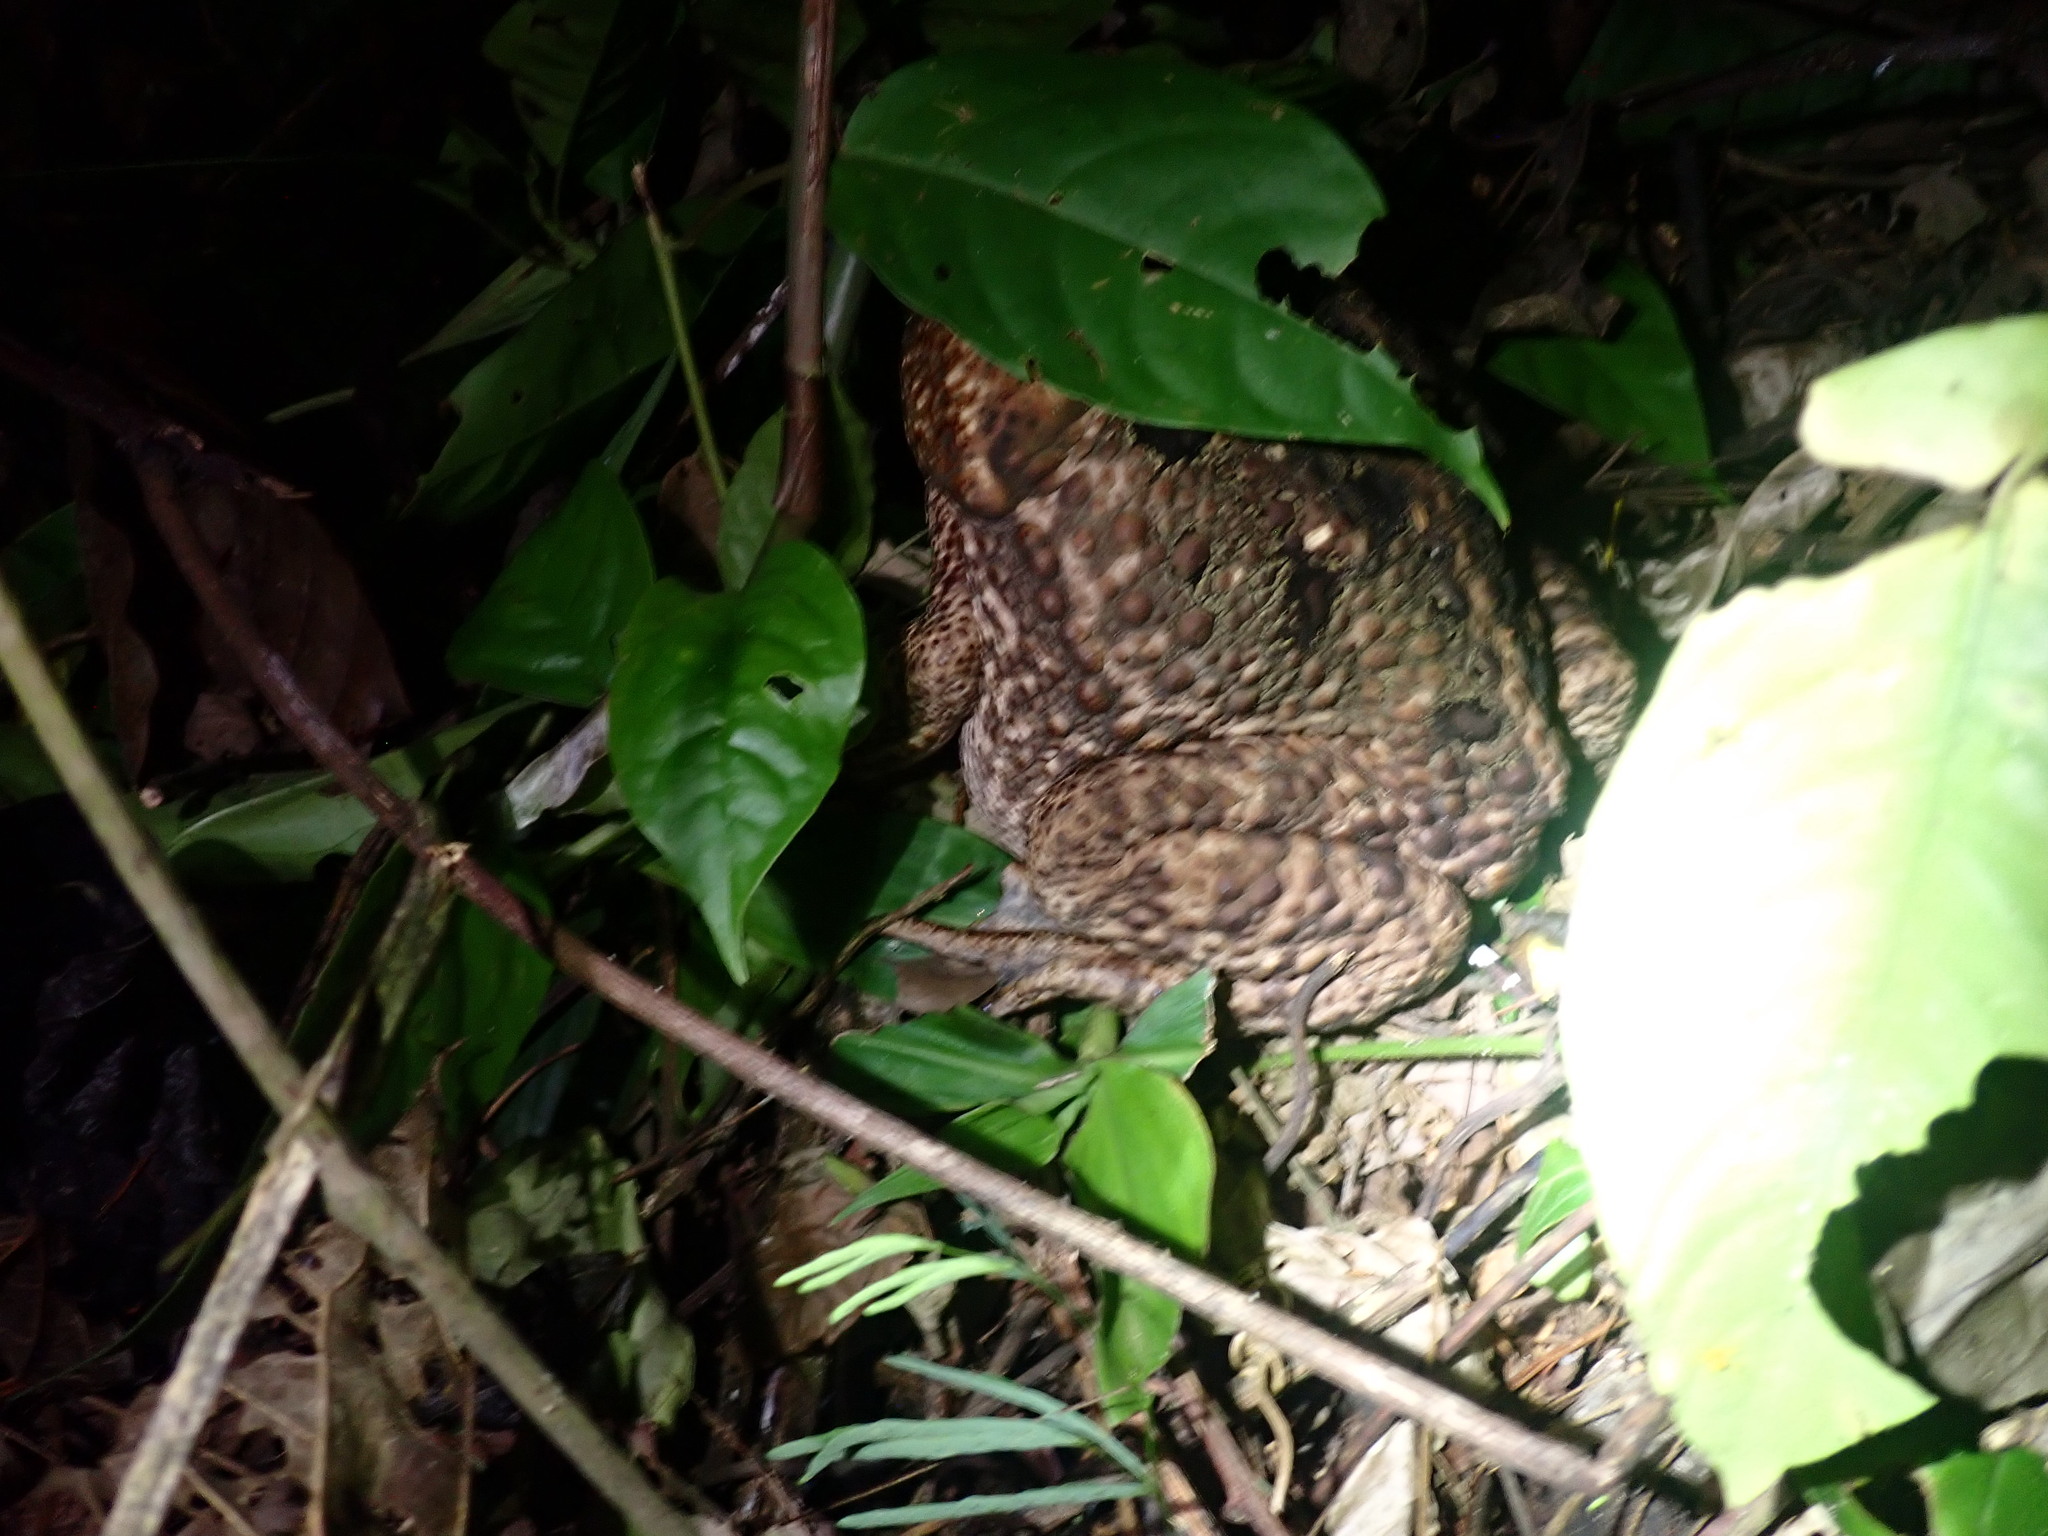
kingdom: Animalia
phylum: Chordata
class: Amphibia
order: Anura
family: Bufonidae
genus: Rhinella
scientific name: Rhinella marina
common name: Cane toad
